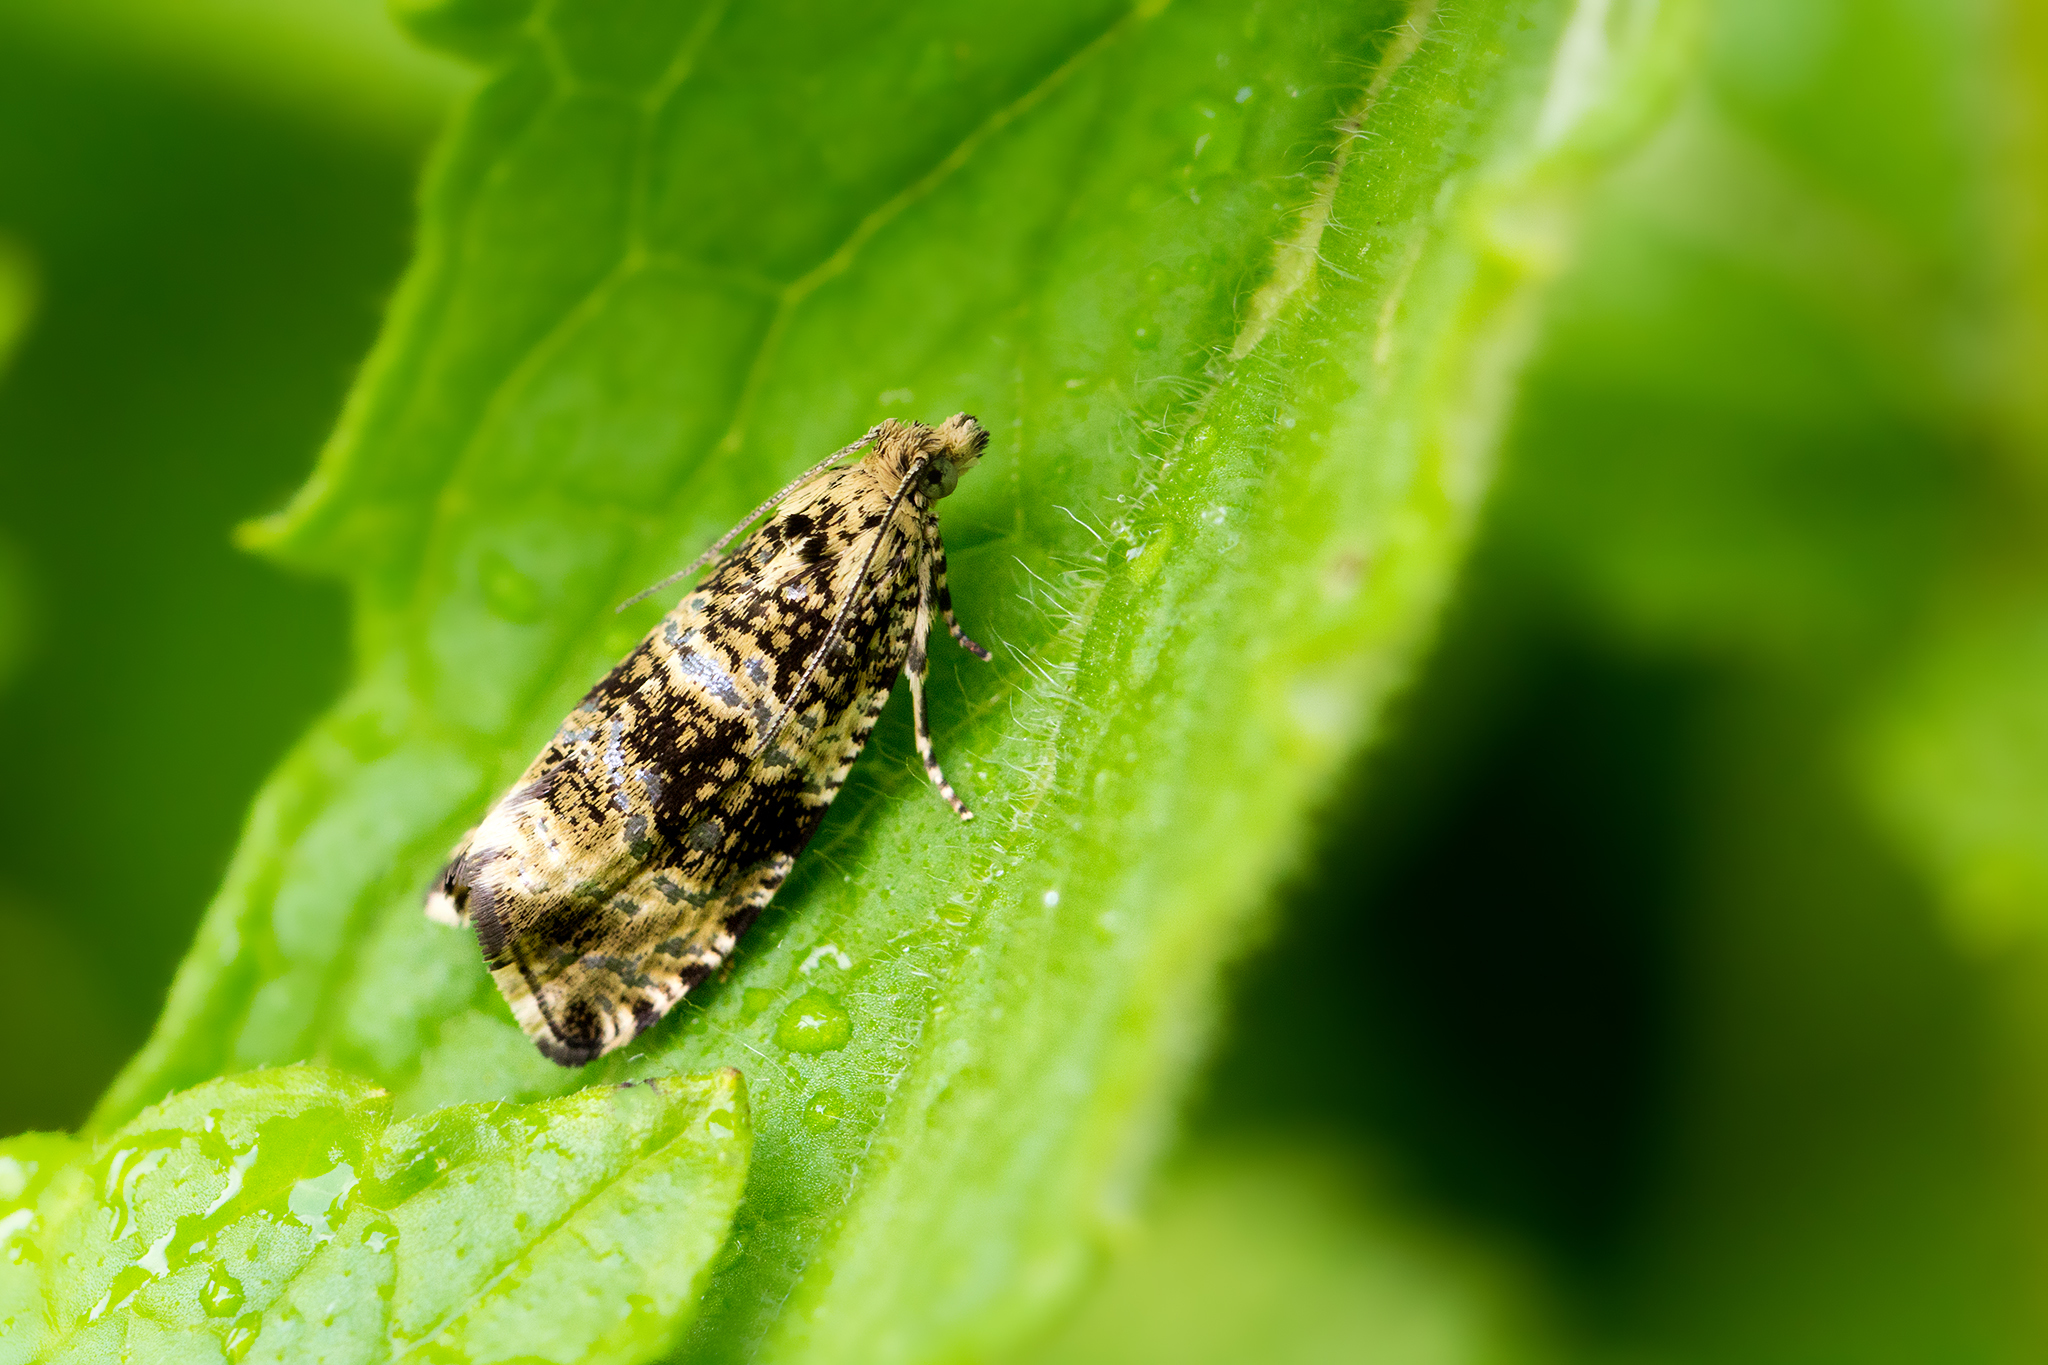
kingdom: Animalia
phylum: Arthropoda
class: Insecta
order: Lepidoptera
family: Tortricidae
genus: Syricoris
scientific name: Syricoris lacunana
